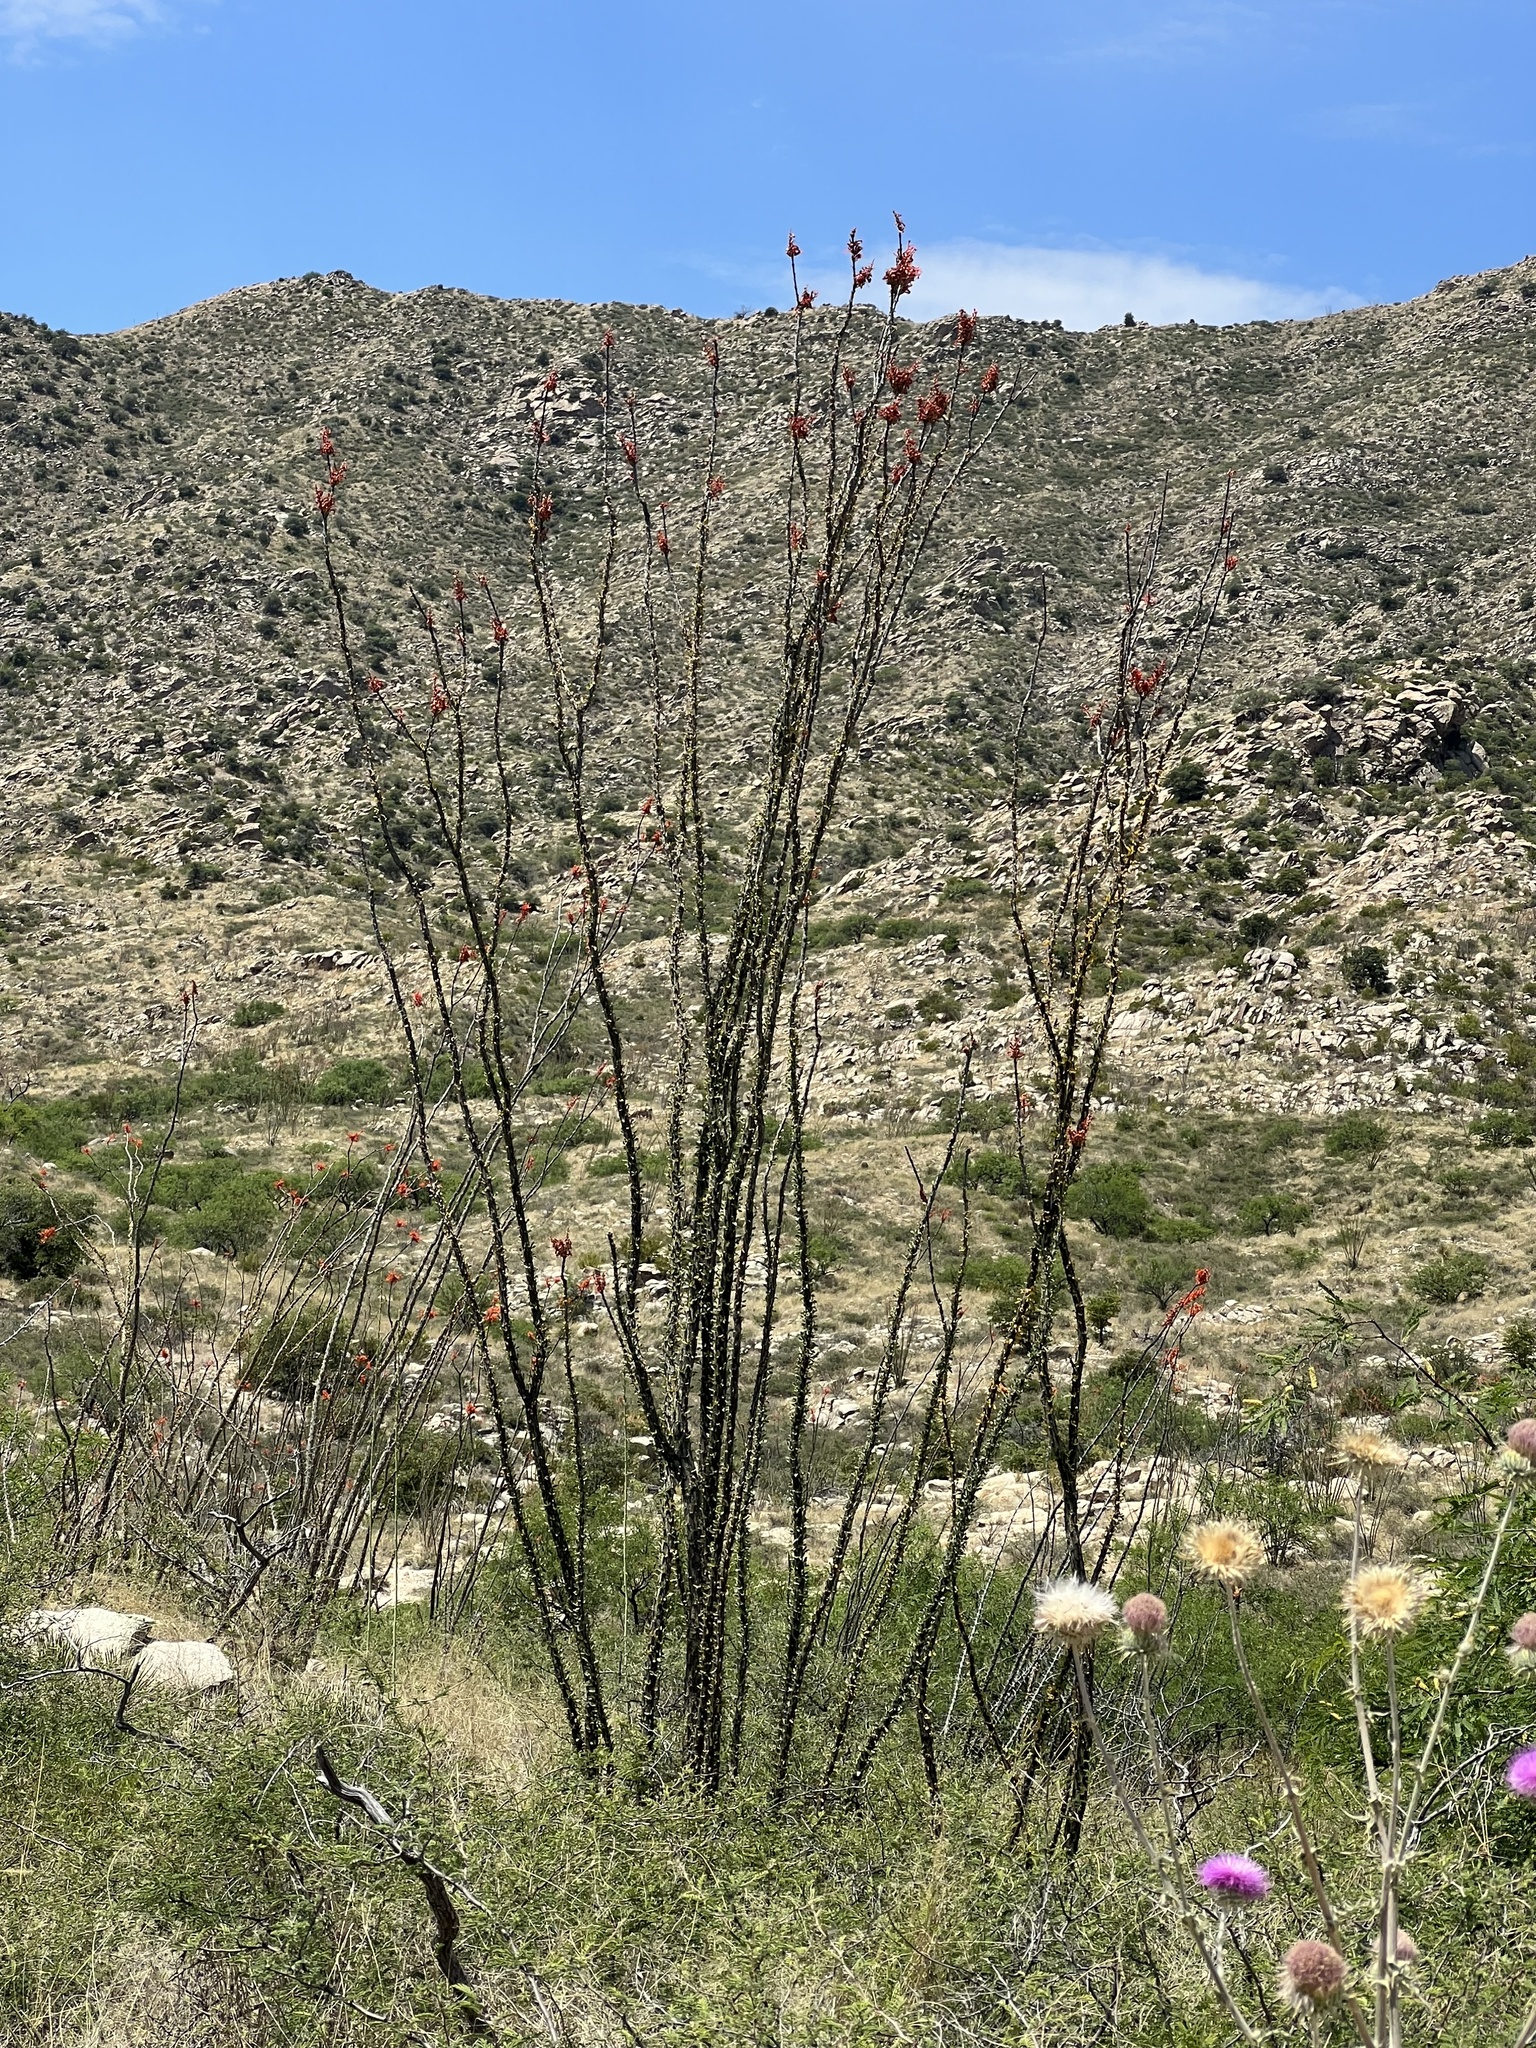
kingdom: Plantae
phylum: Tracheophyta
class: Magnoliopsida
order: Ericales
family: Fouquieriaceae
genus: Fouquieria
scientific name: Fouquieria splendens
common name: Vine-cactus
